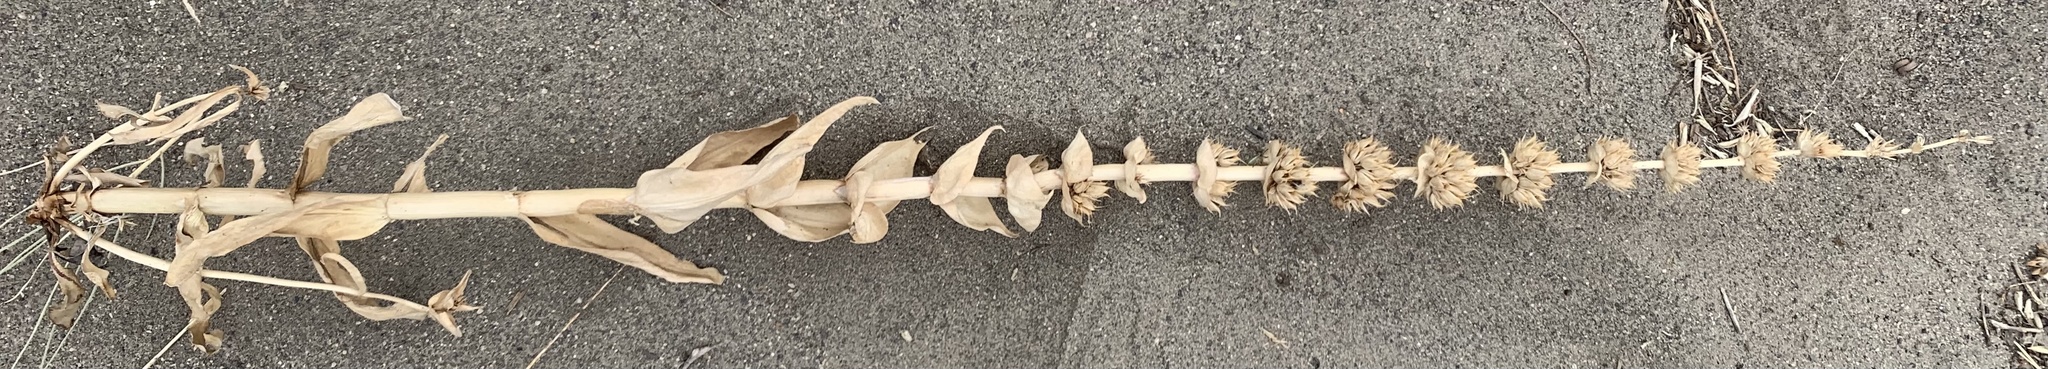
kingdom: Plantae
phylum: Tracheophyta
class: Magnoliopsida
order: Lamiales
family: Plantaginaceae
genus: Penstemon
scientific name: Penstemon acuminatus
